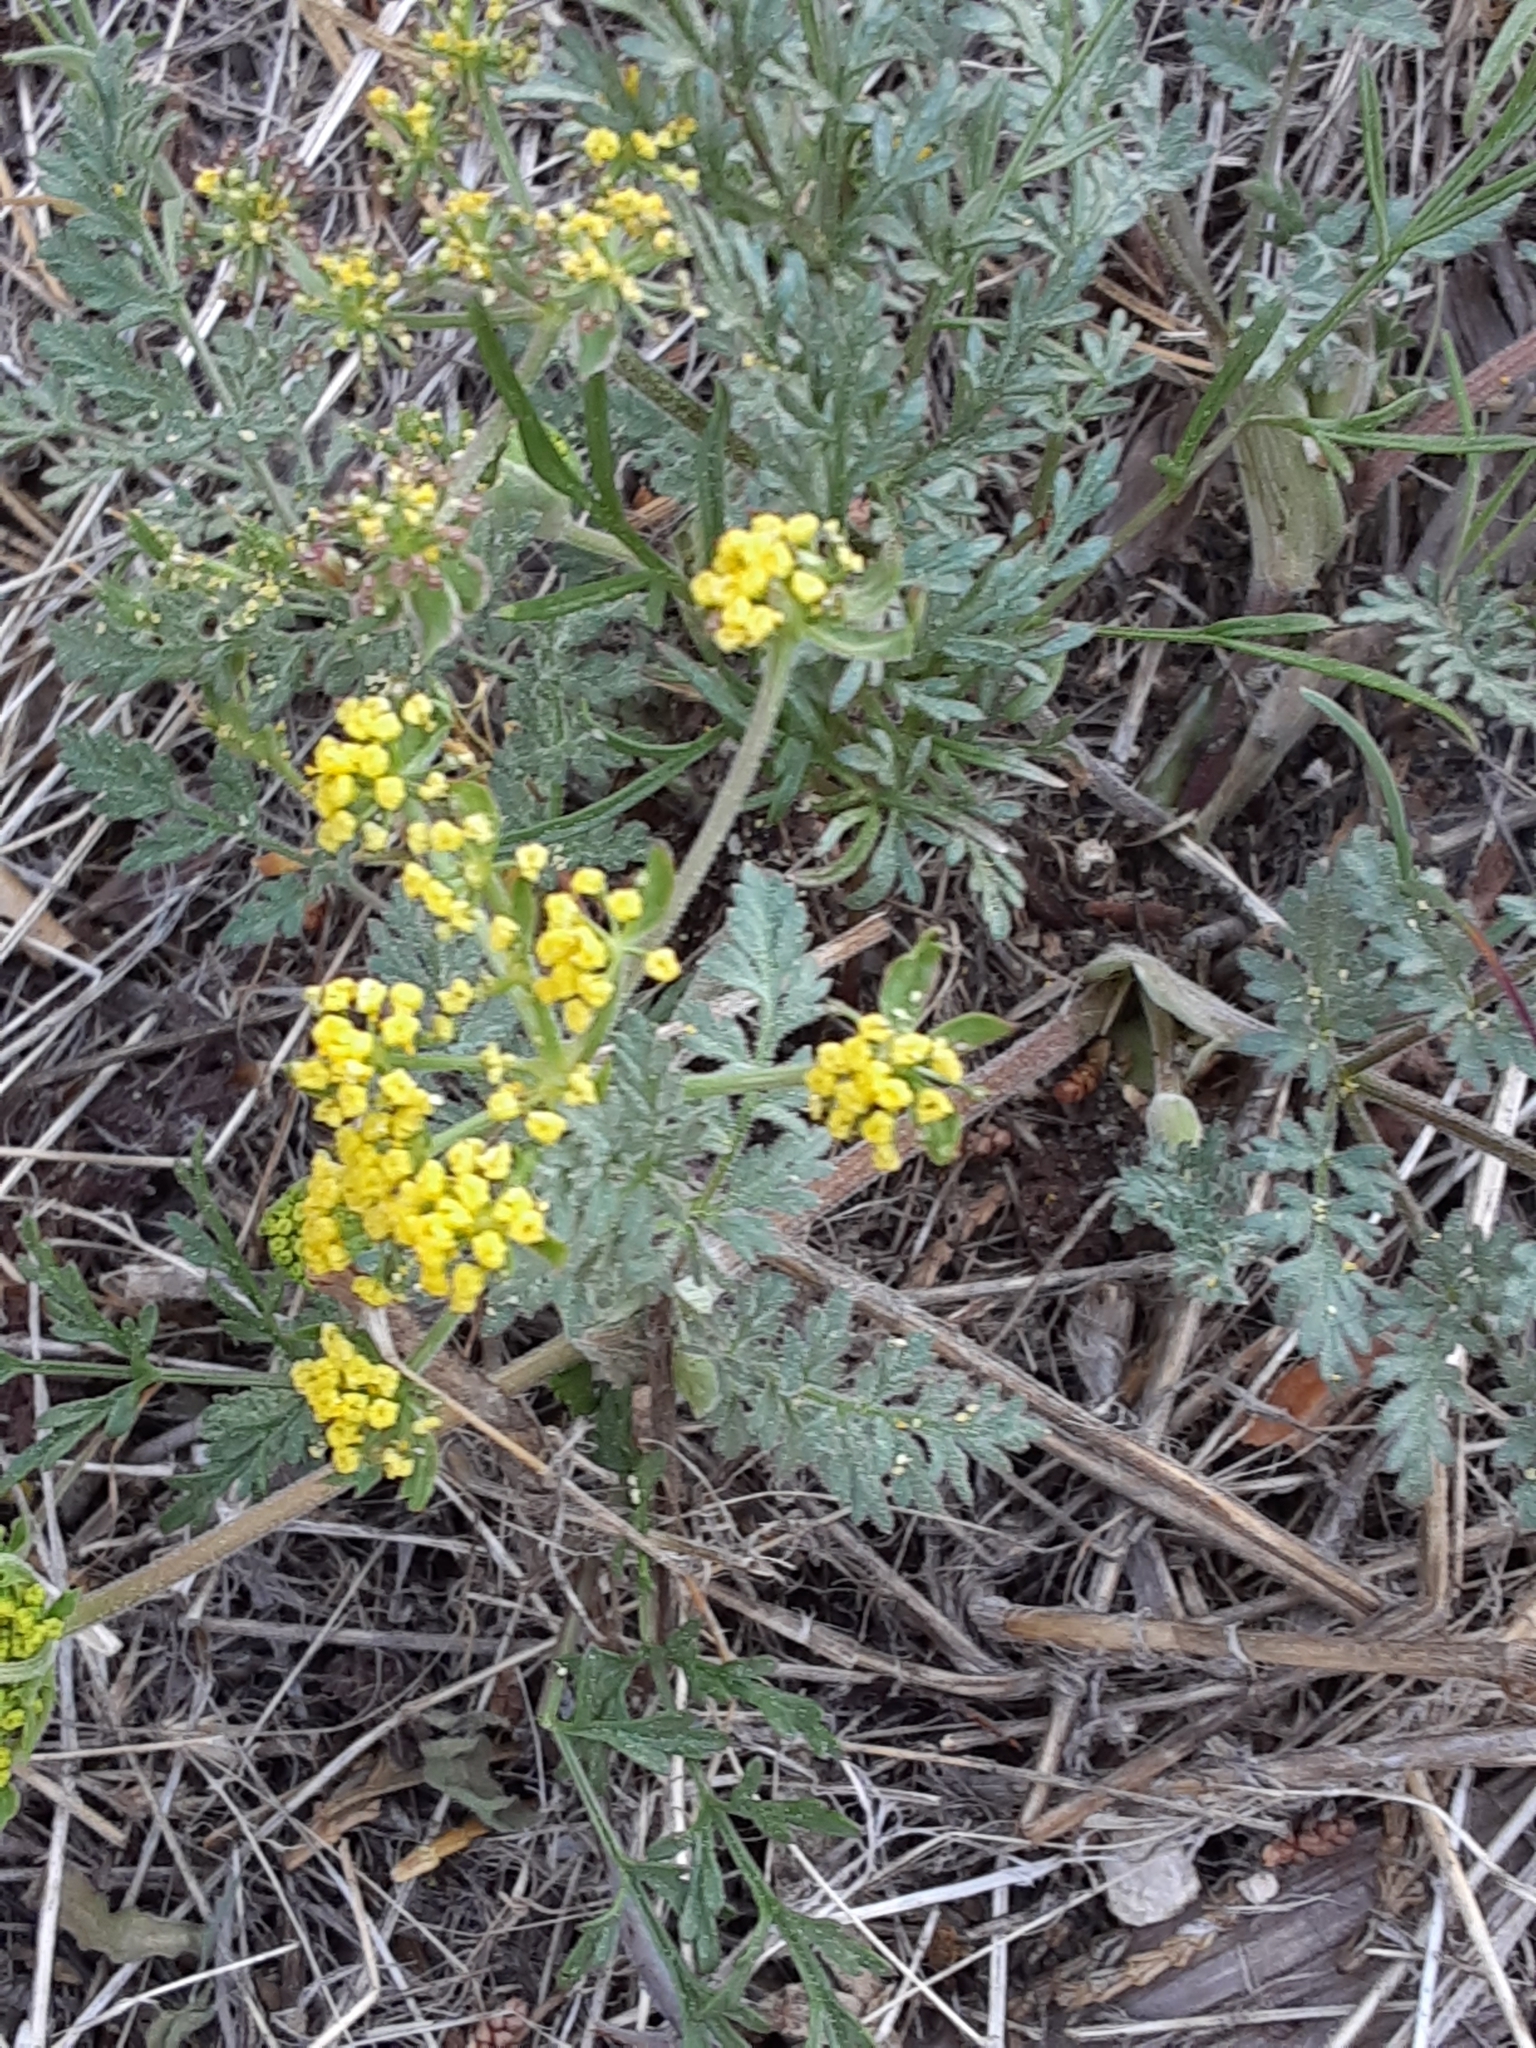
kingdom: Plantae
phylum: Tracheophyta
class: Magnoliopsida
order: Apiales
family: Apiaceae
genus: Lomatium
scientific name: Lomatium utriculatum
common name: Fine-leaf desert-parsley
